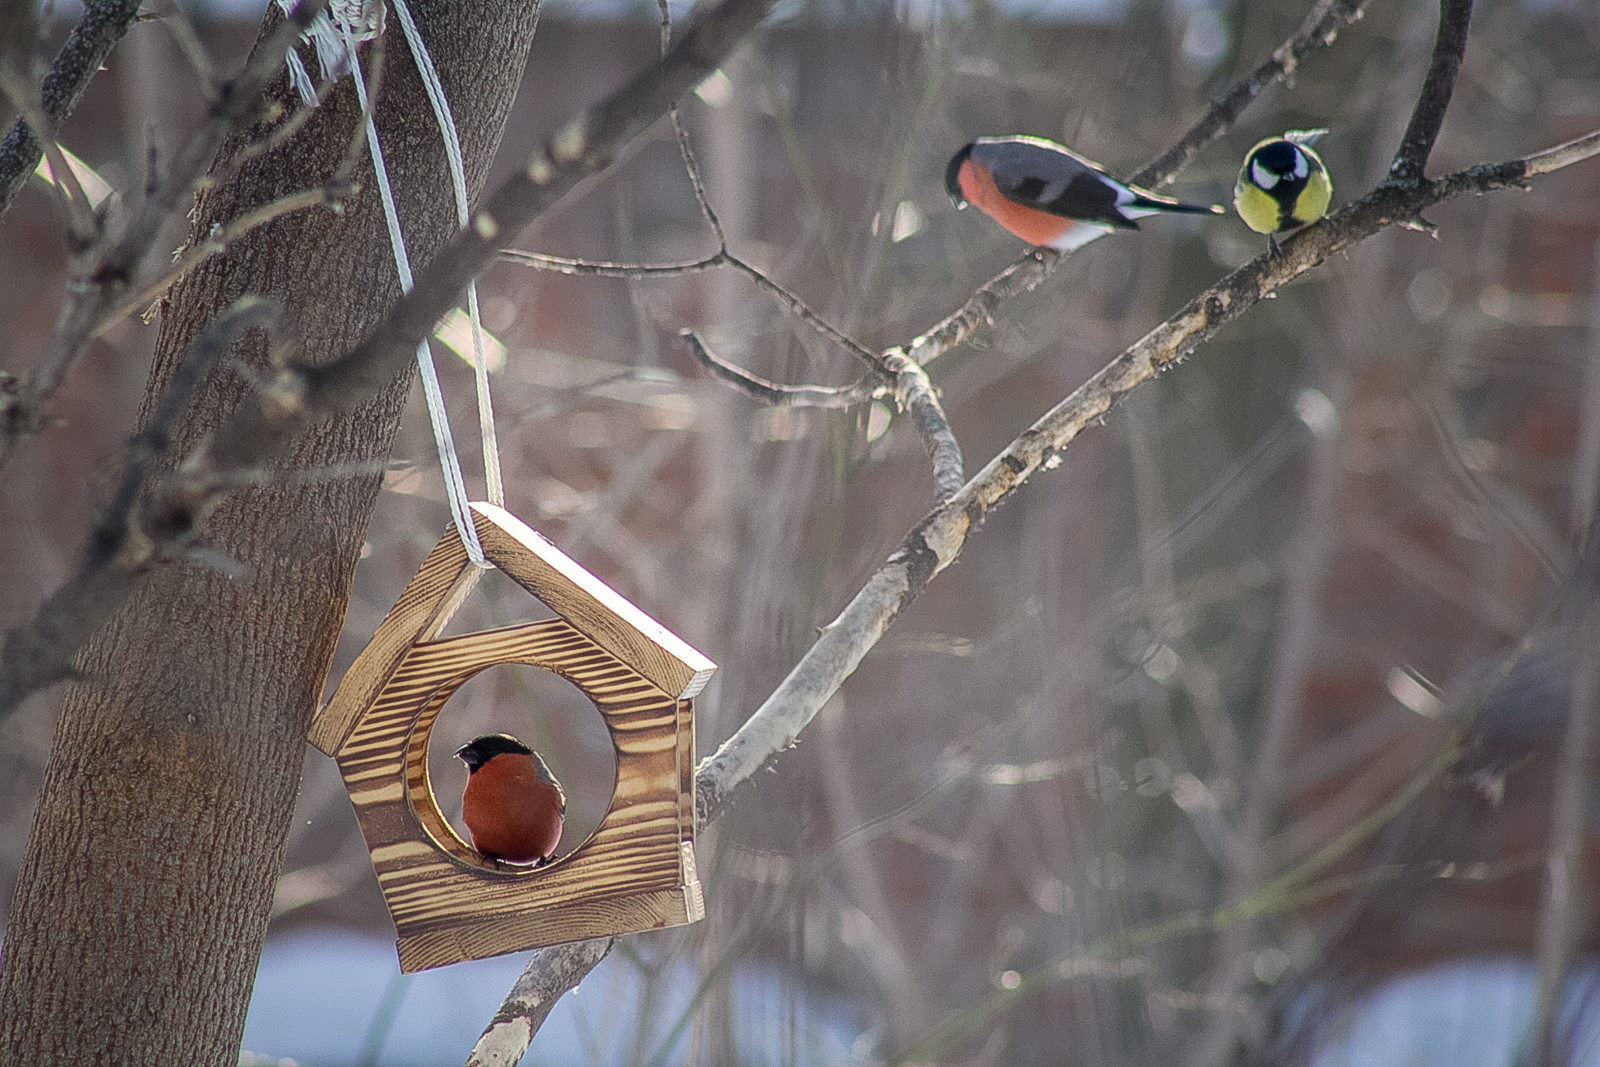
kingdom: Animalia
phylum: Chordata
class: Aves
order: Passeriformes
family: Fringillidae
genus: Pyrrhula
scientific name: Pyrrhula pyrrhula
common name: Eurasian bullfinch
